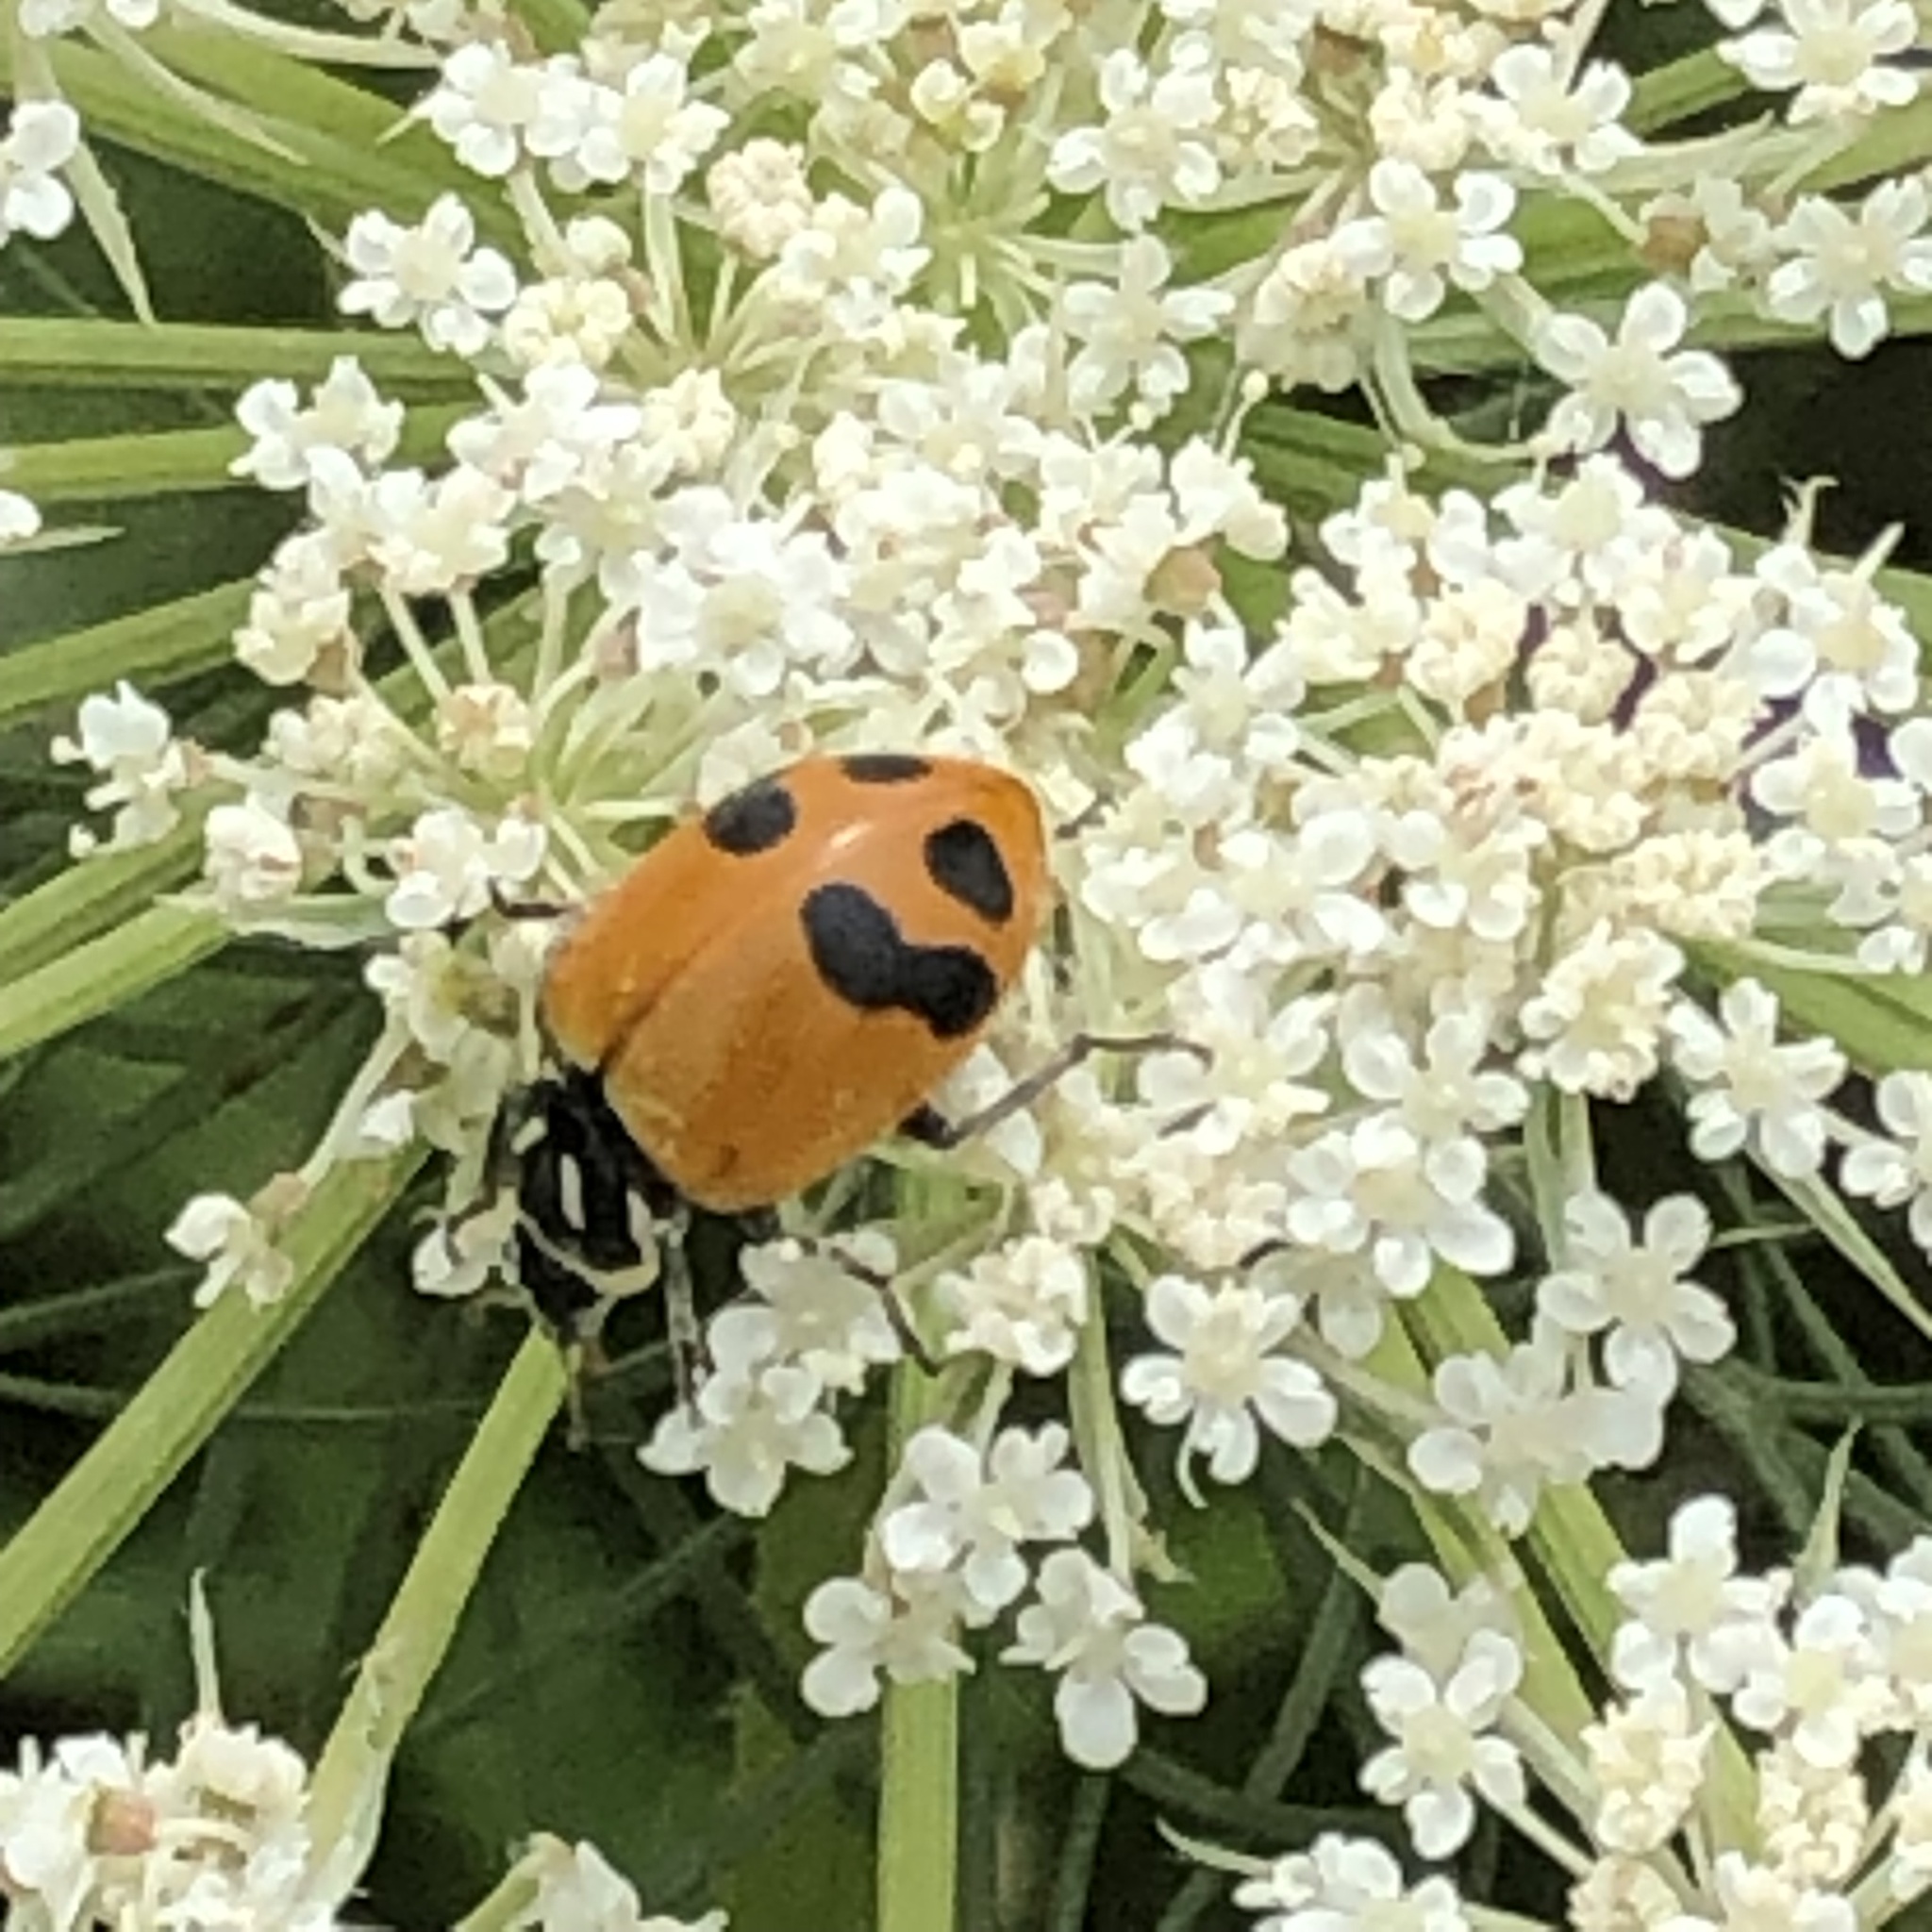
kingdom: Animalia
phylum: Arthropoda
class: Insecta
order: Coleoptera
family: Coccinellidae
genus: Hippodamia
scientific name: Hippodamia glacialis
